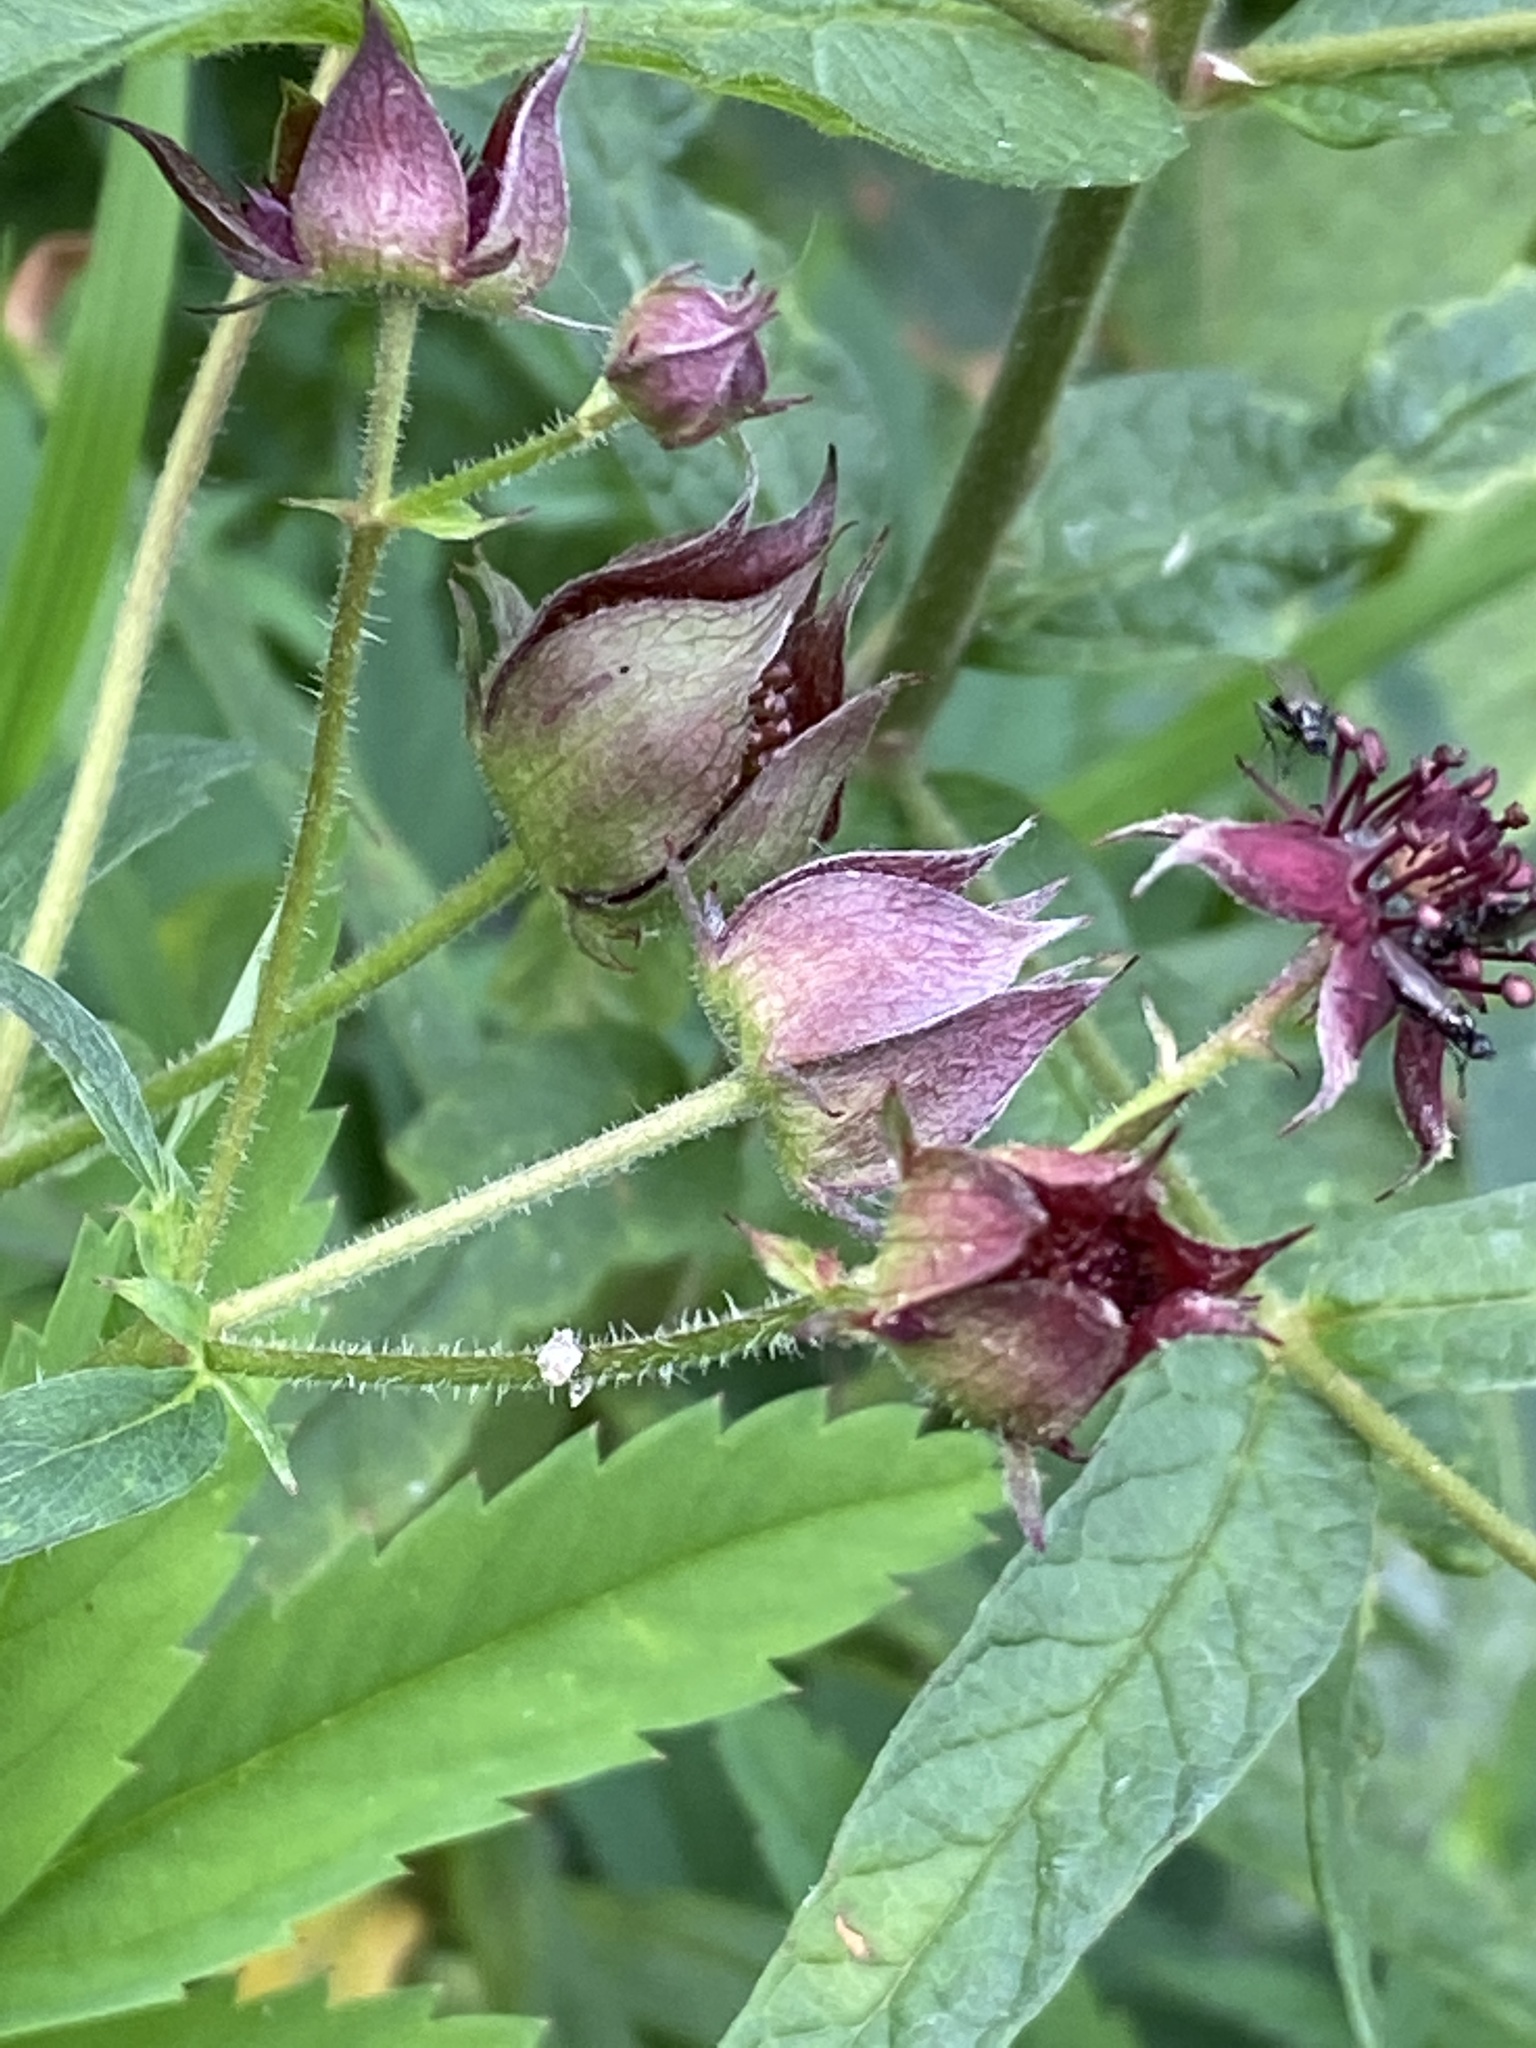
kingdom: Plantae
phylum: Tracheophyta
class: Magnoliopsida
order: Rosales
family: Rosaceae
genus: Comarum
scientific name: Comarum palustre
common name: Marsh cinquefoil
